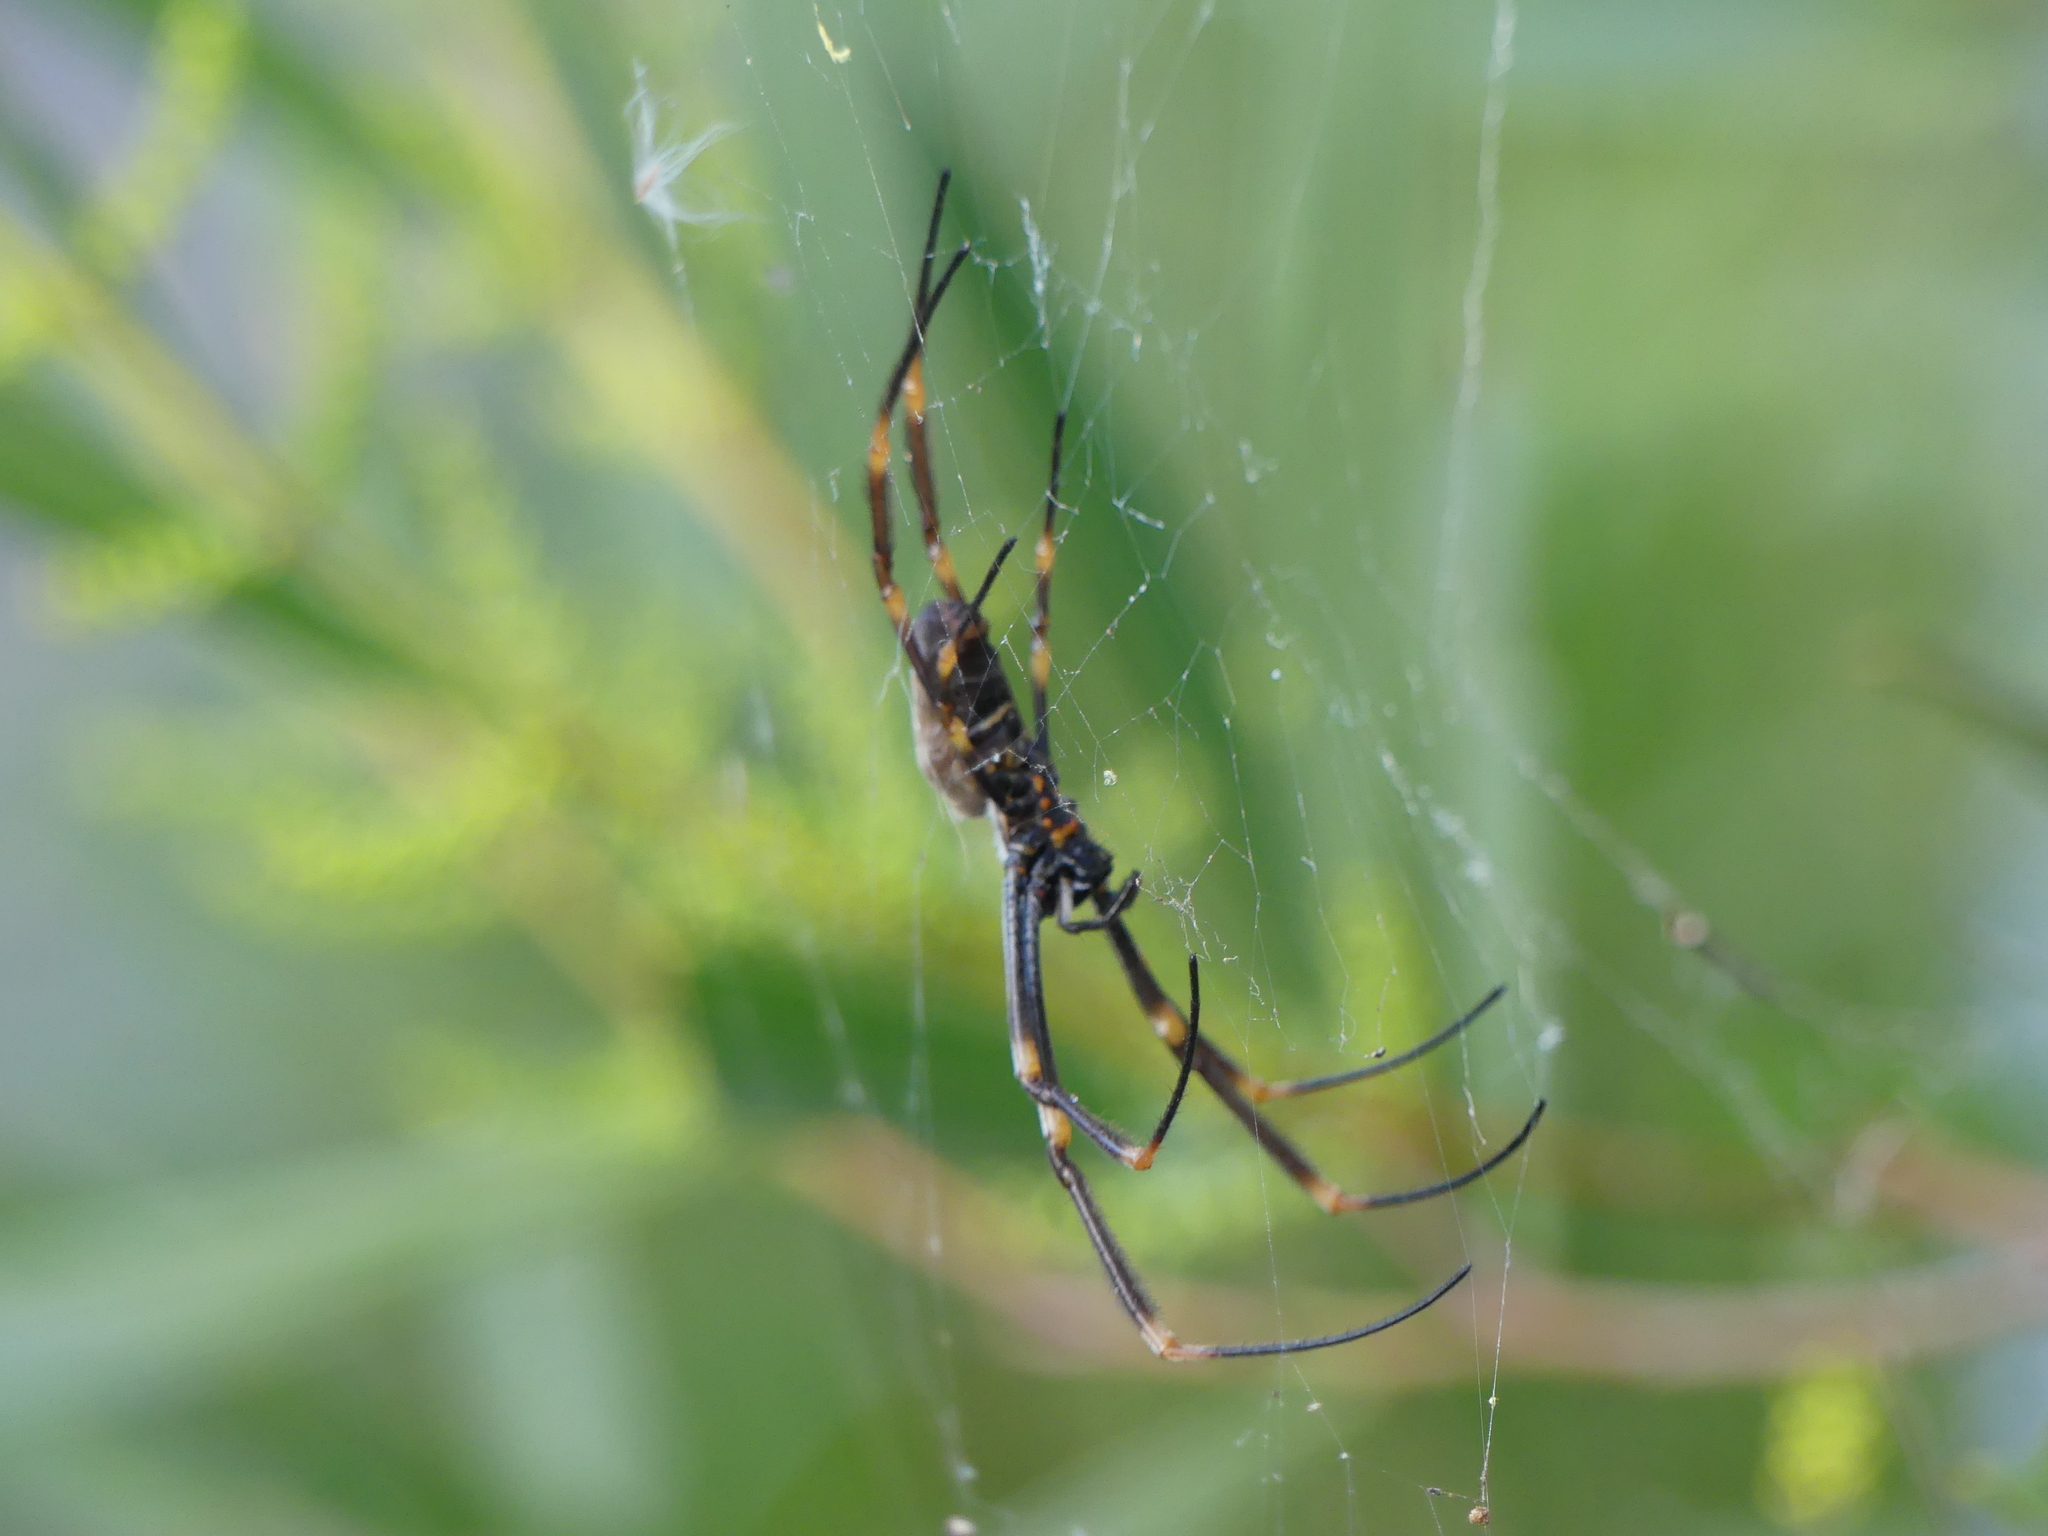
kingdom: Animalia
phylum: Arthropoda
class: Arachnida
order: Araneae
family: Araneidae
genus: Trichonephila
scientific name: Trichonephila plumipes
